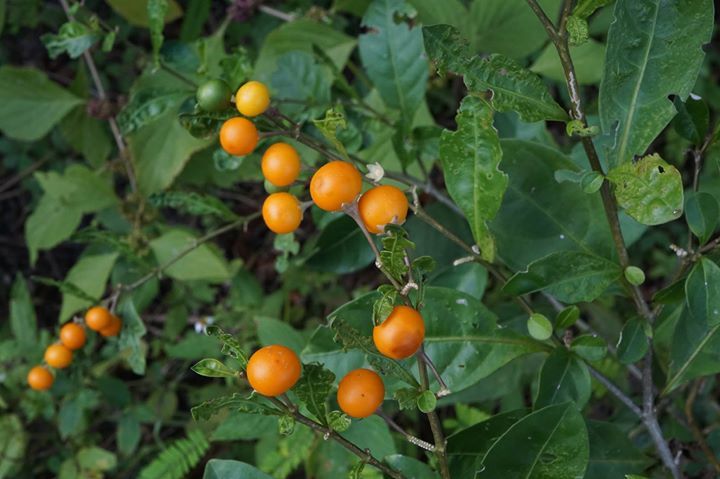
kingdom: Plantae
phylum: Tracheophyta
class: Magnoliopsida
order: Solanales
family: Solanaceae
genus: Solanum
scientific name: Solanum diphyllum
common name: Twoleaf nightshade
